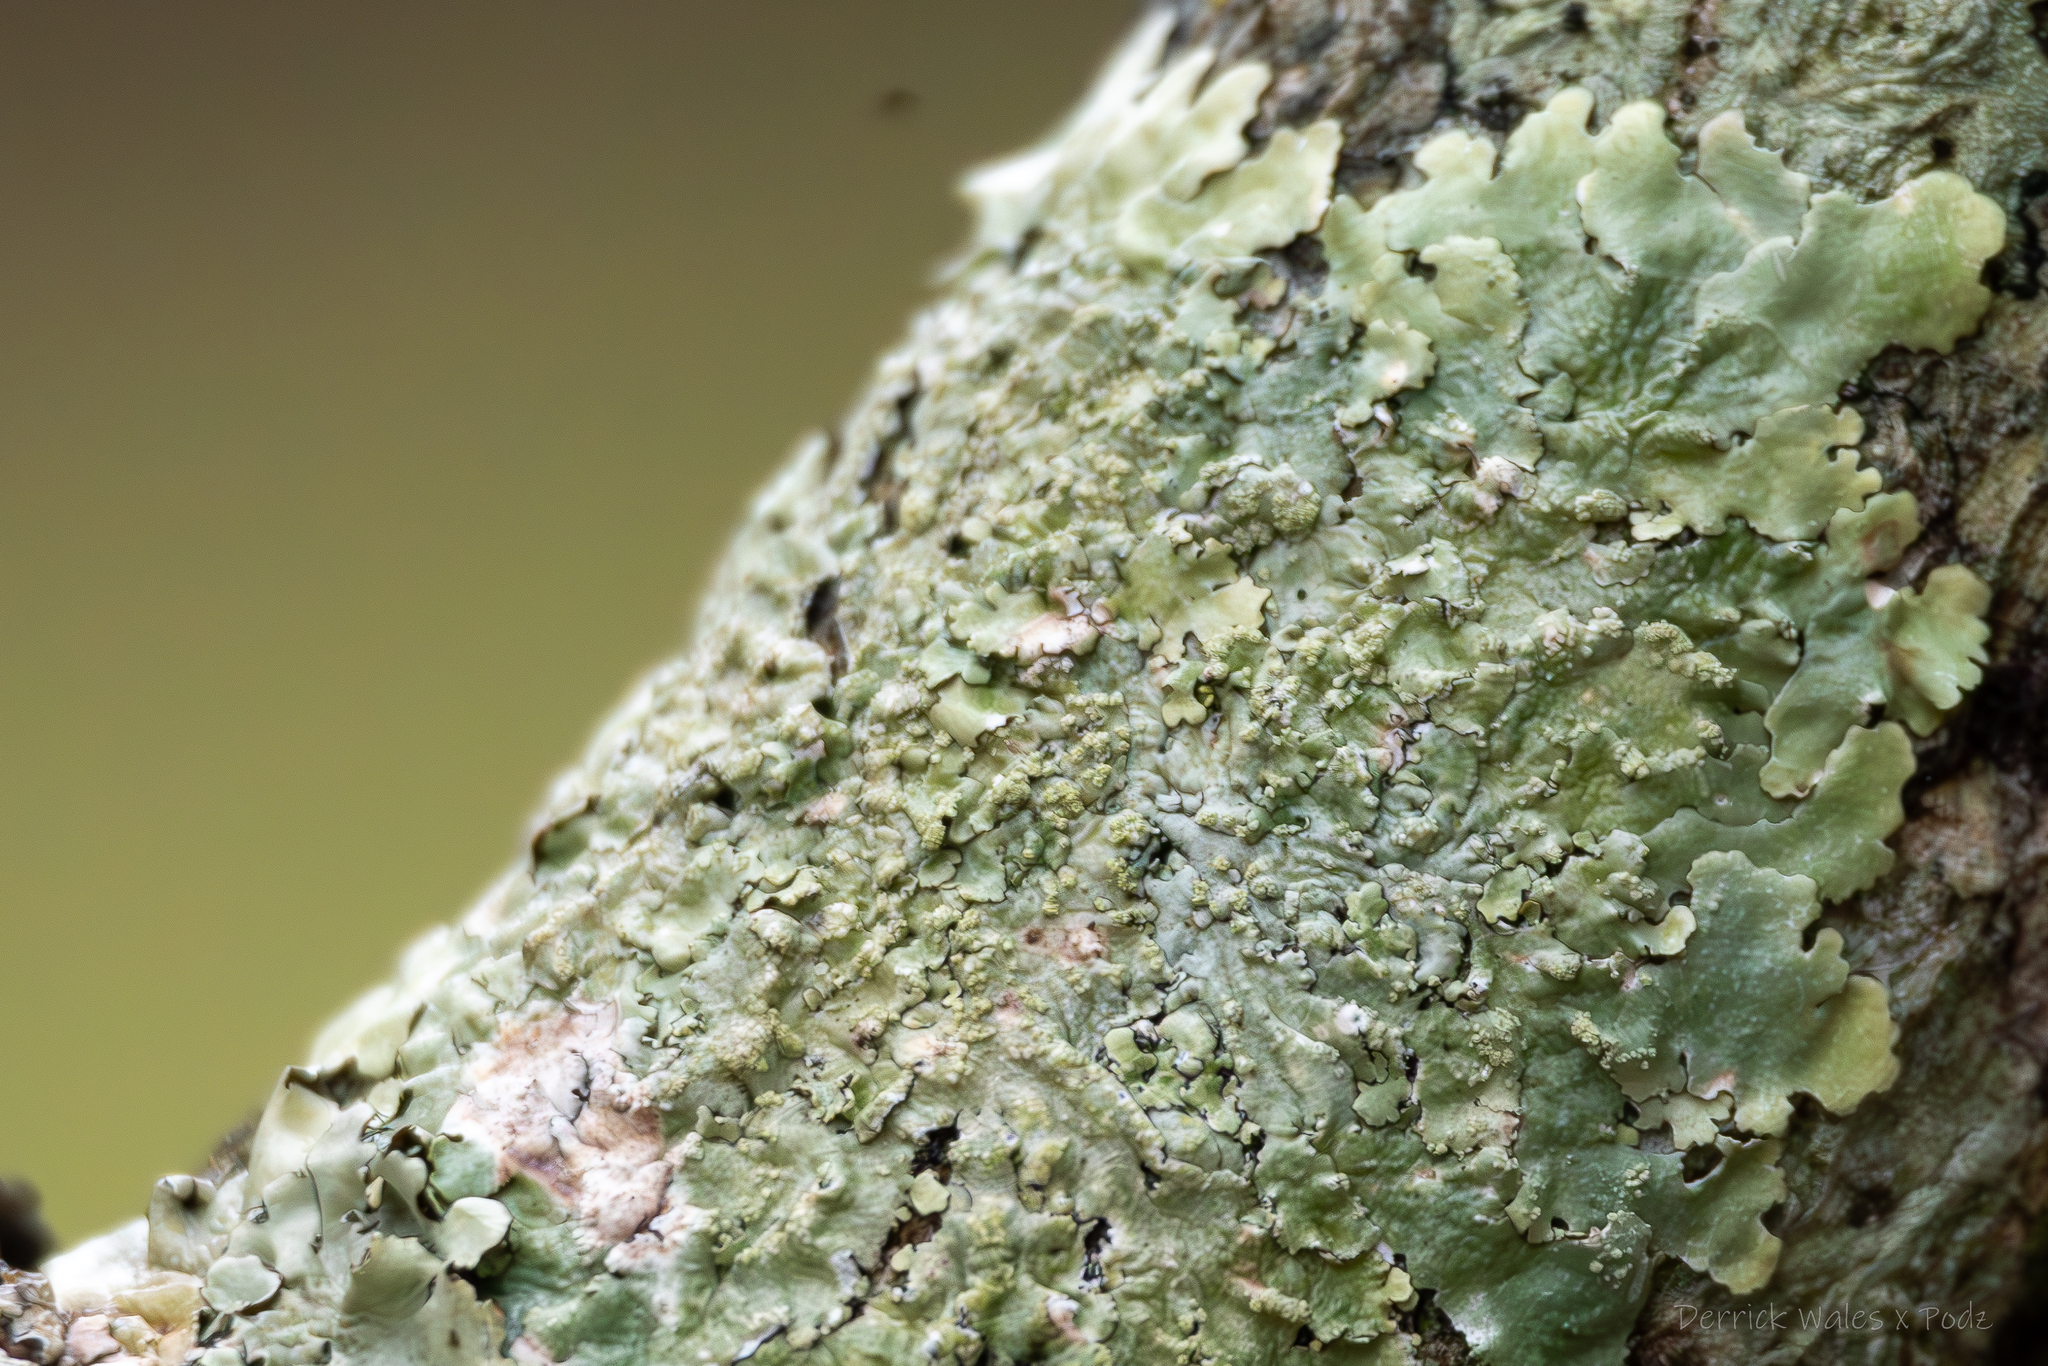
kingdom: Fungi
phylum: Ascomycota
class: Lecanoromycetes
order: Lecanorales
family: Parmeliaceae
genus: Canoparmelia
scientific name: Canoparmelia texana
